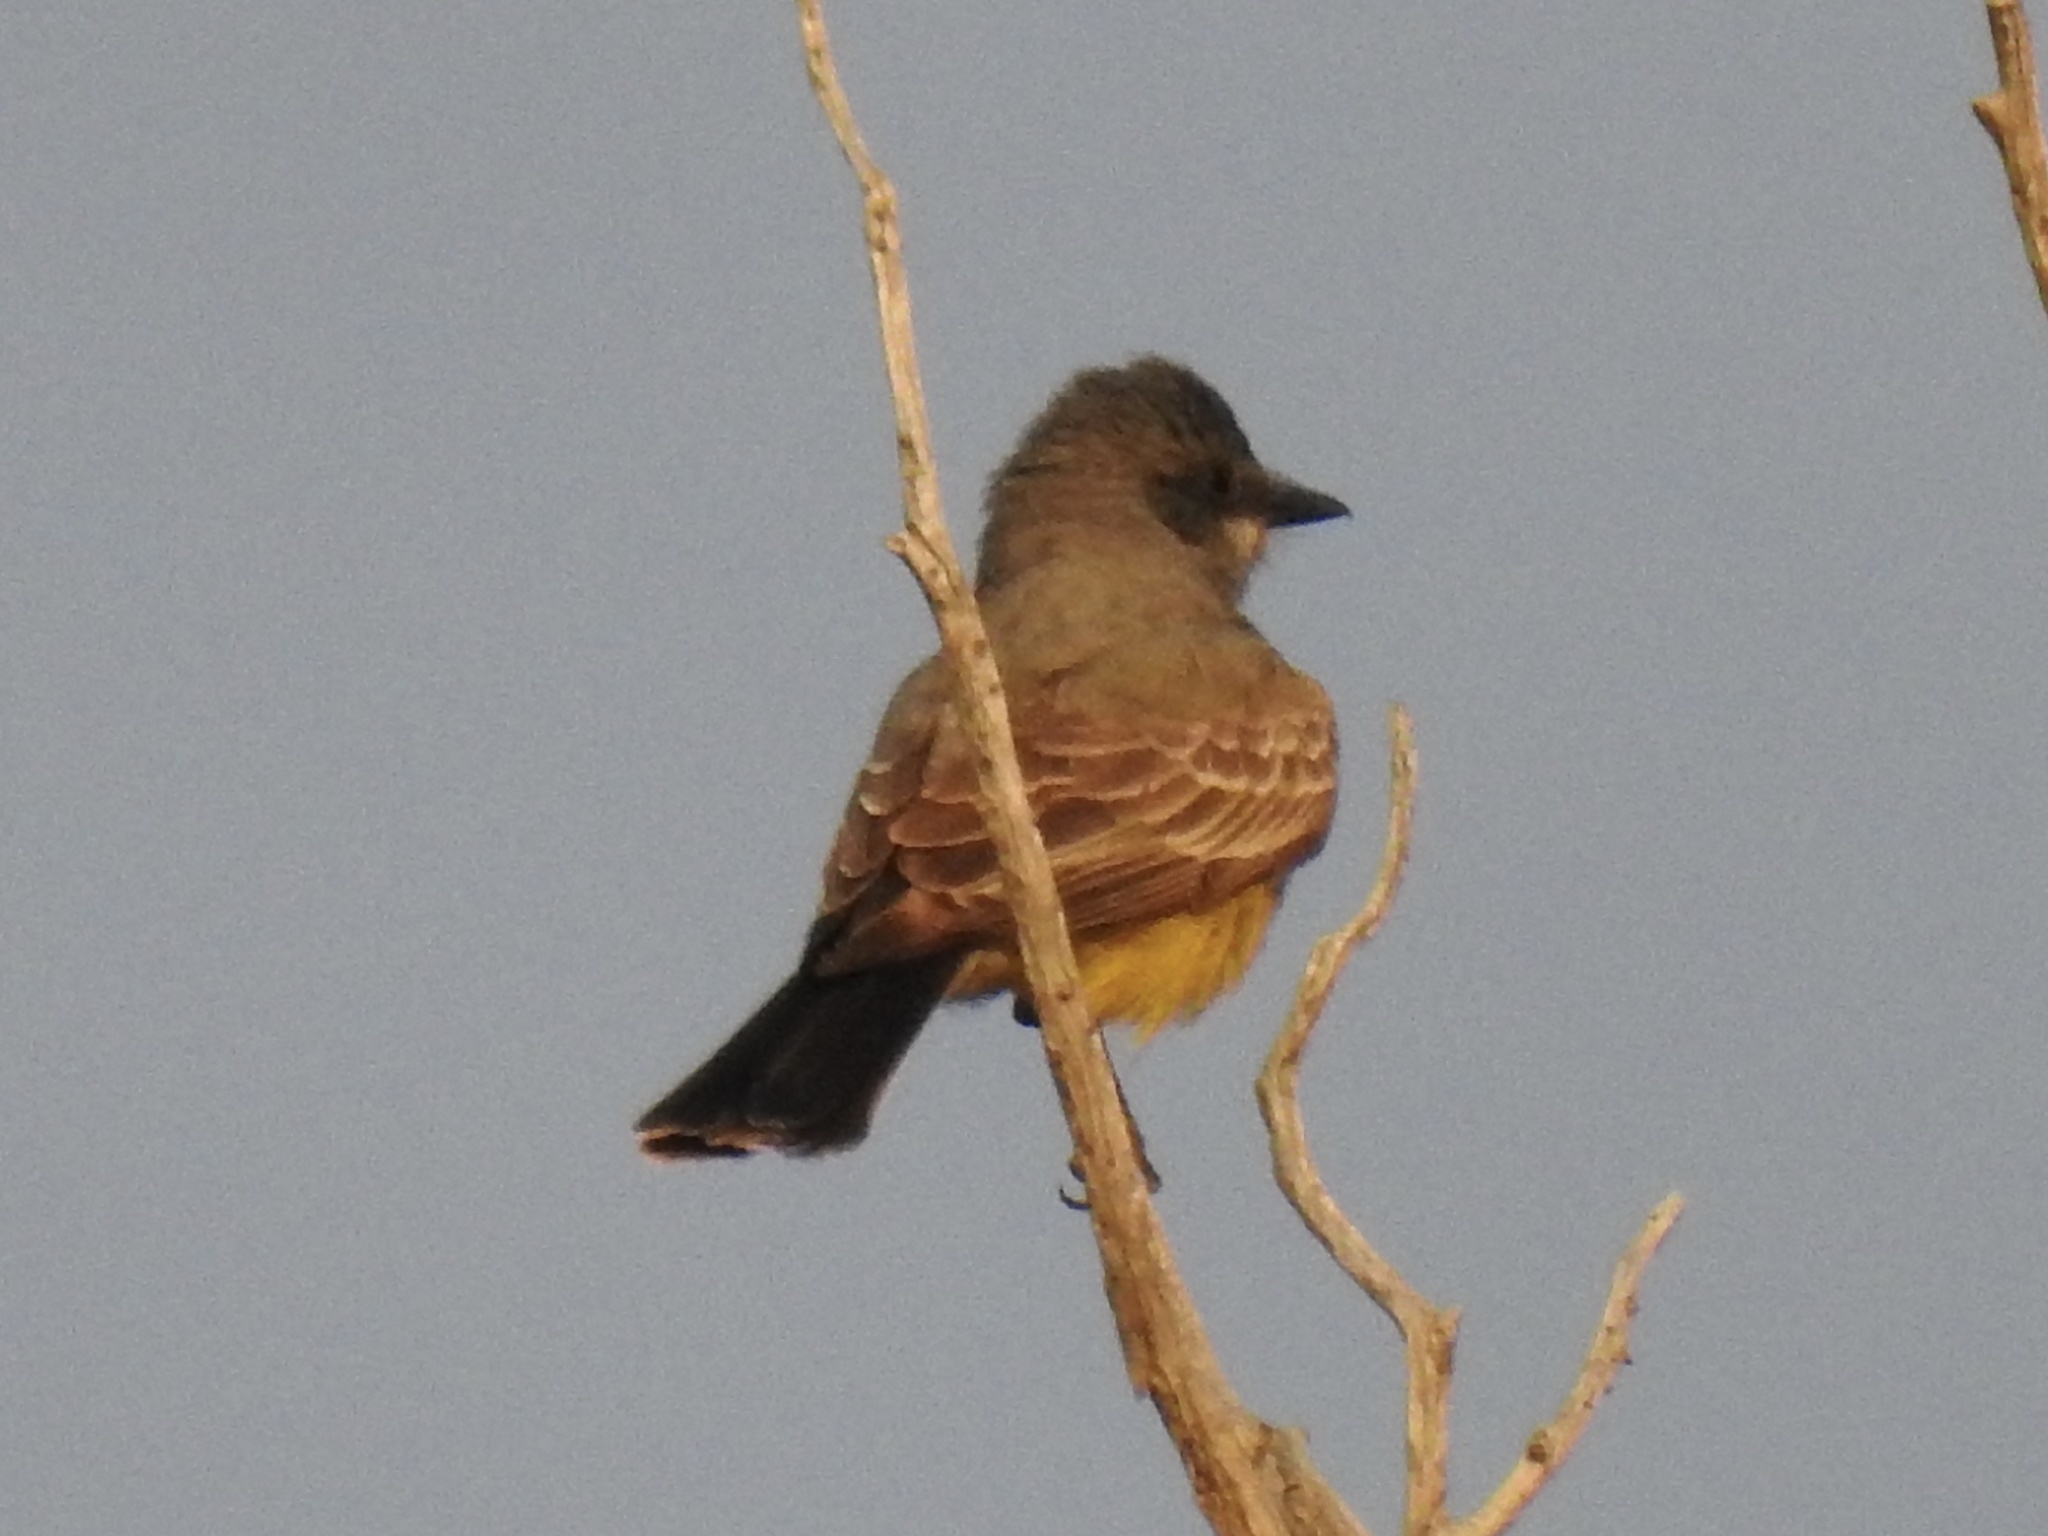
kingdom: Animalia
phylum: Chordata
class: Aves
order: Passeriformes
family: Tyrannidae
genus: Tyrannus
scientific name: Tyrannus vociferans
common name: Cassin's kingbird
